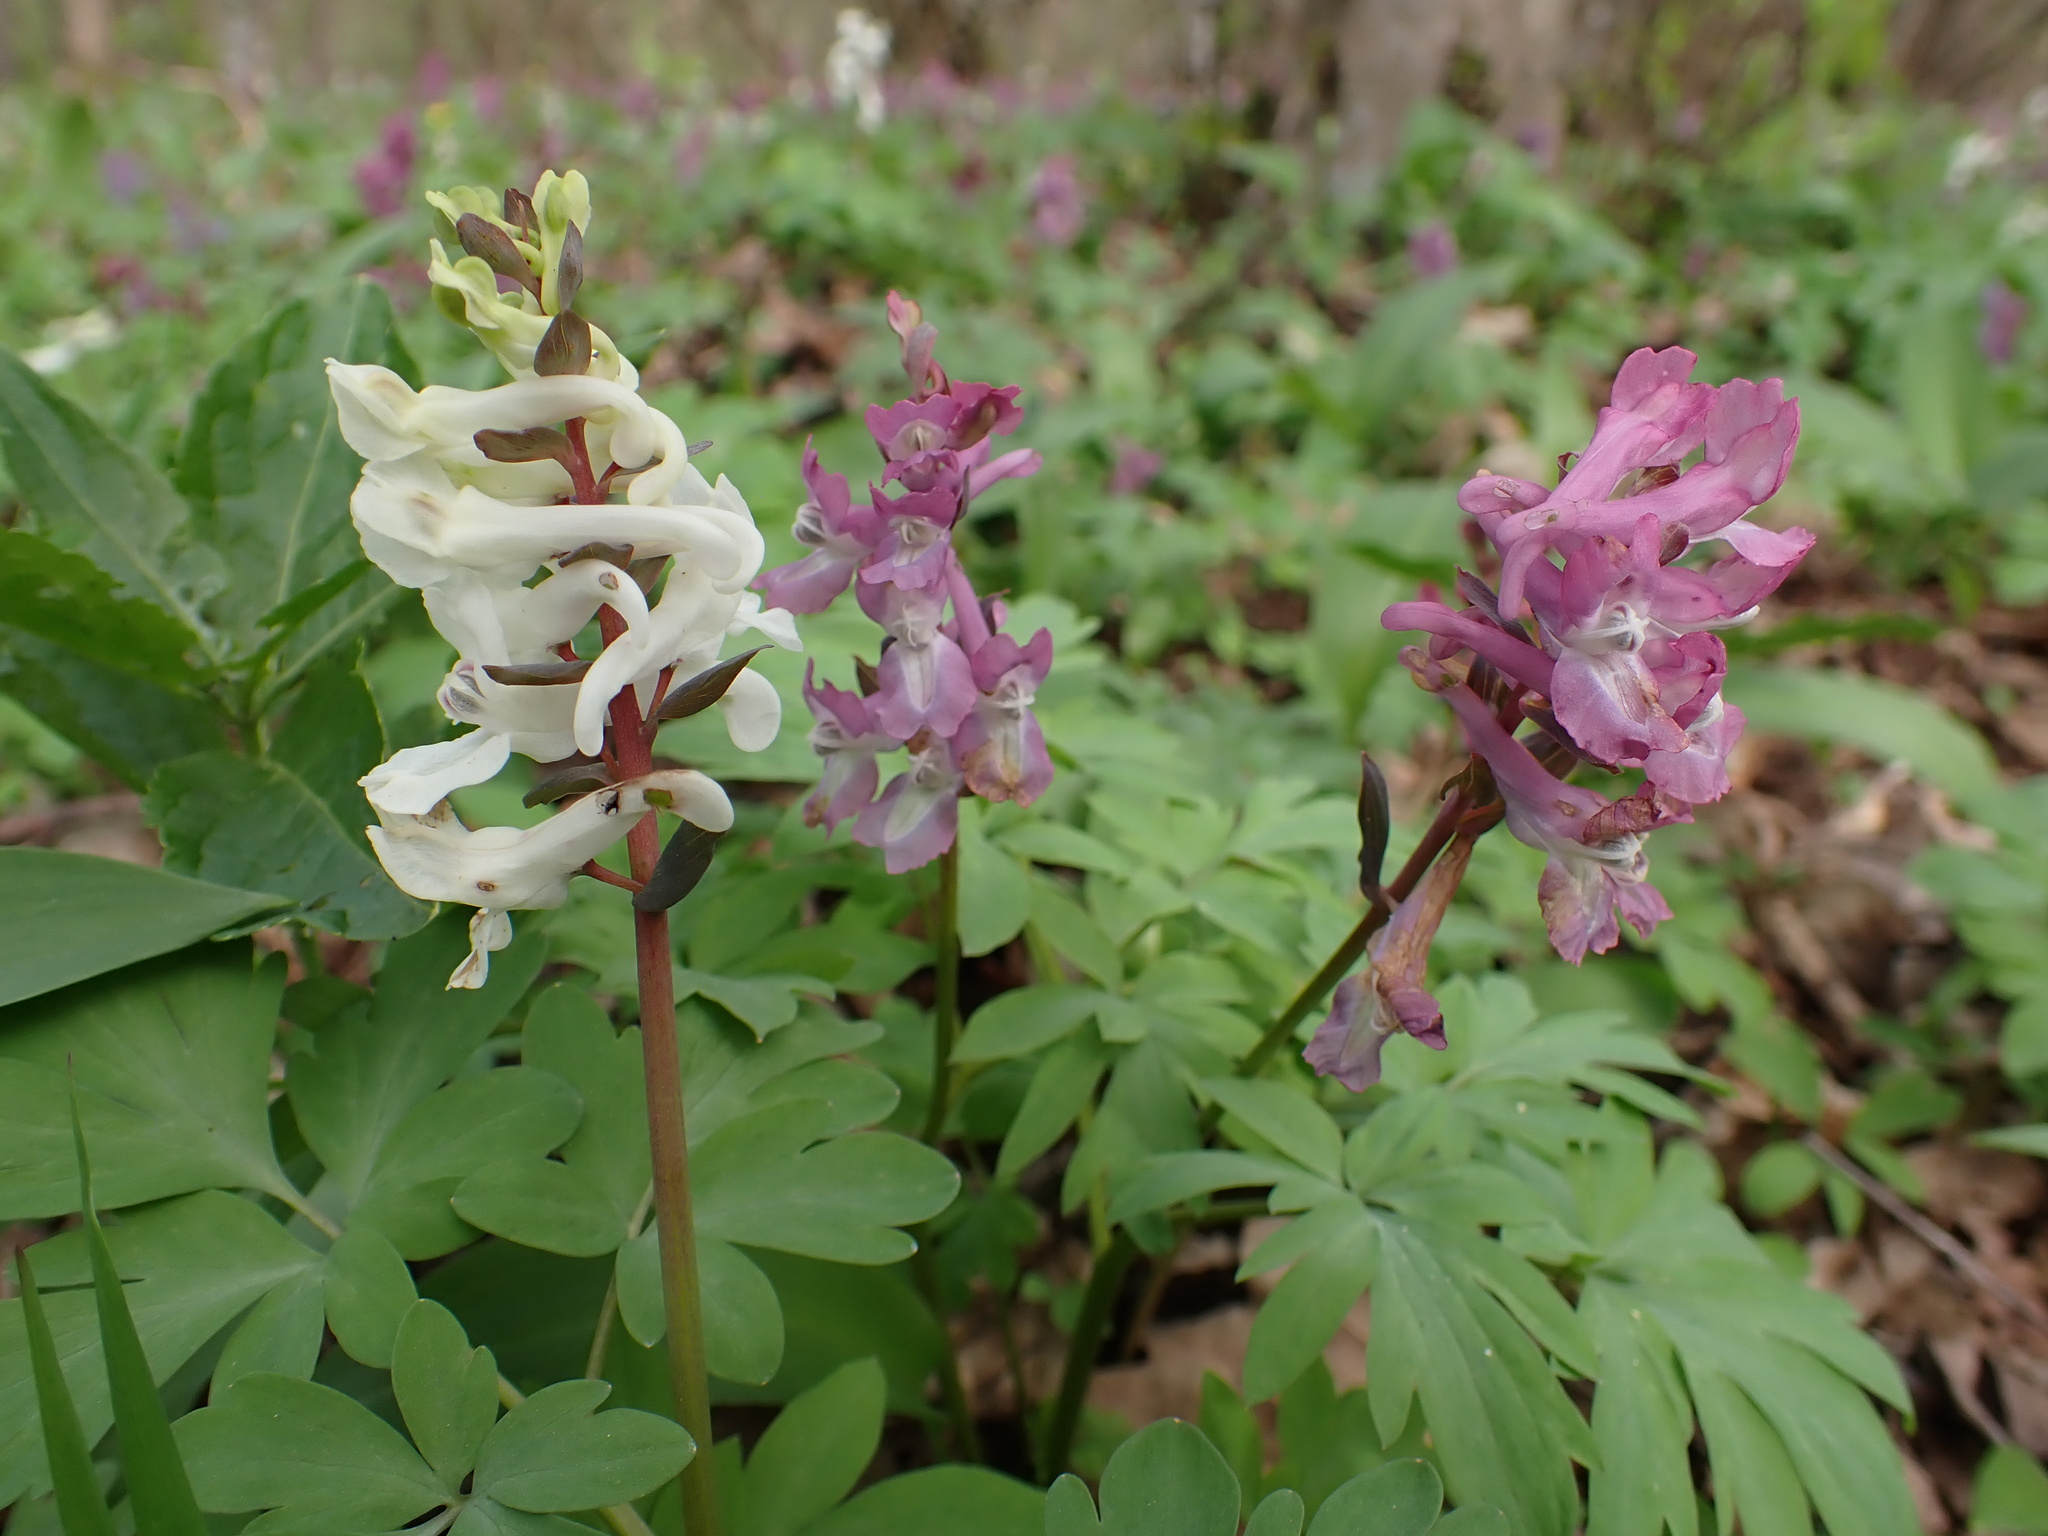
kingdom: Plantae
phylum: Tracheophyta
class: Magnoliopsida
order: Ranunculales
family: Papaveraceae
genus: Corydalis
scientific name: Corydalis cava
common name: Hollowroot
